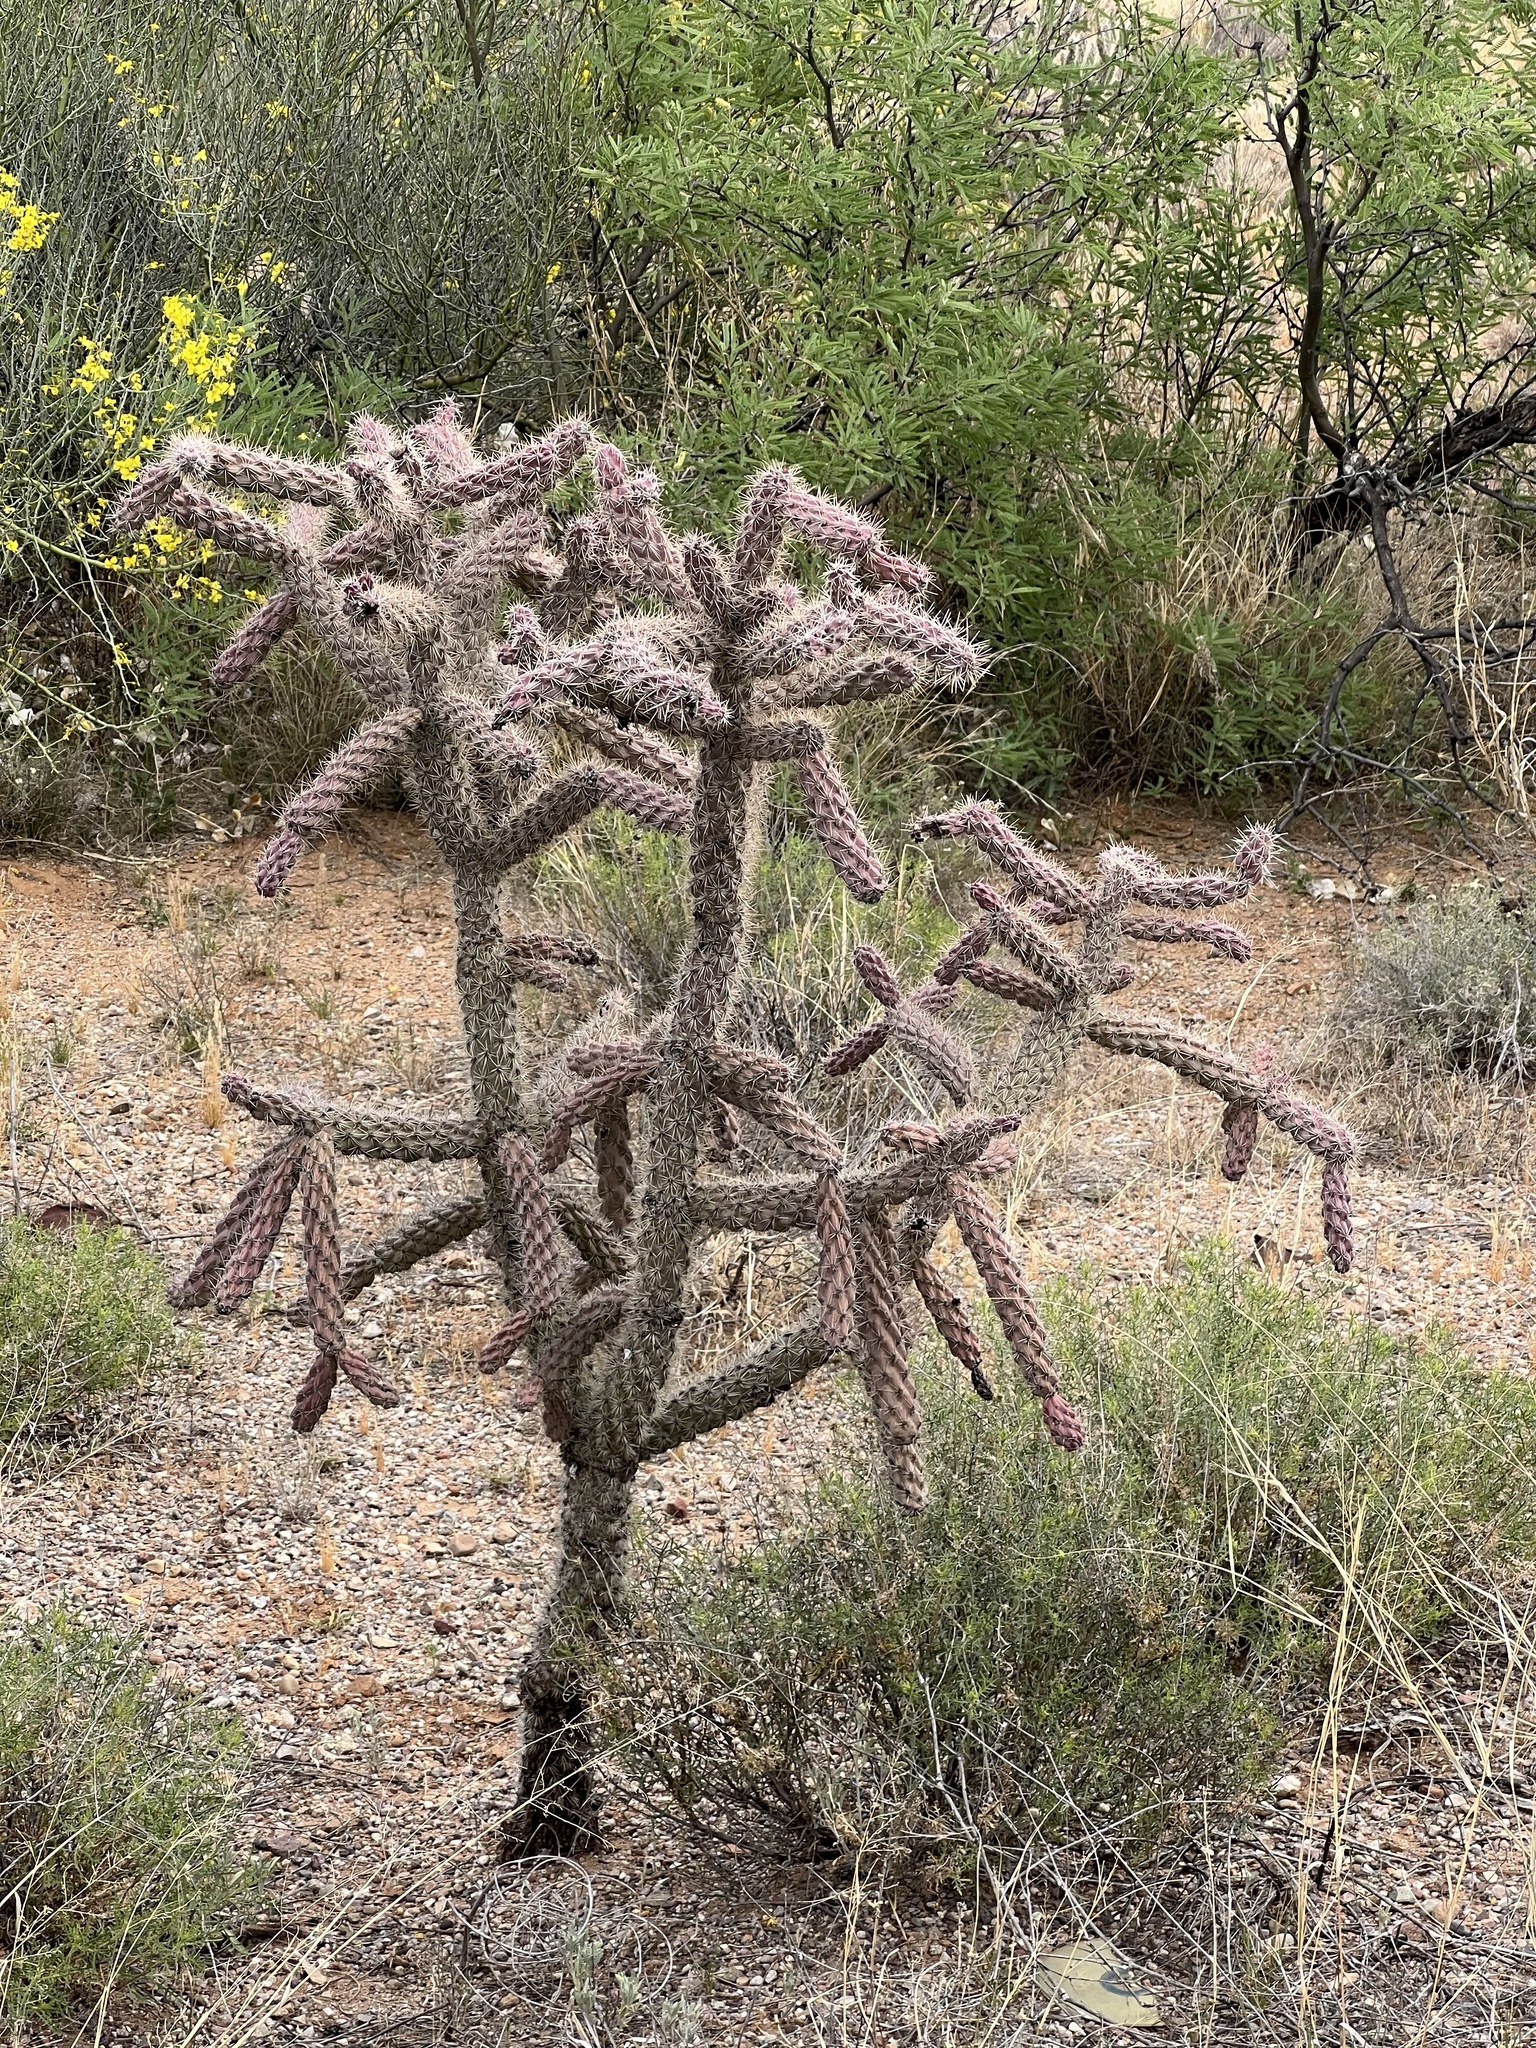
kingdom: Plantae
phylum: Tracheophyta
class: Magnoliopsida
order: Caryophyllales
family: Cactaceae
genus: Cylindropuntia
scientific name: Cylindropuntia imbricata
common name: Candelabrum cactus
